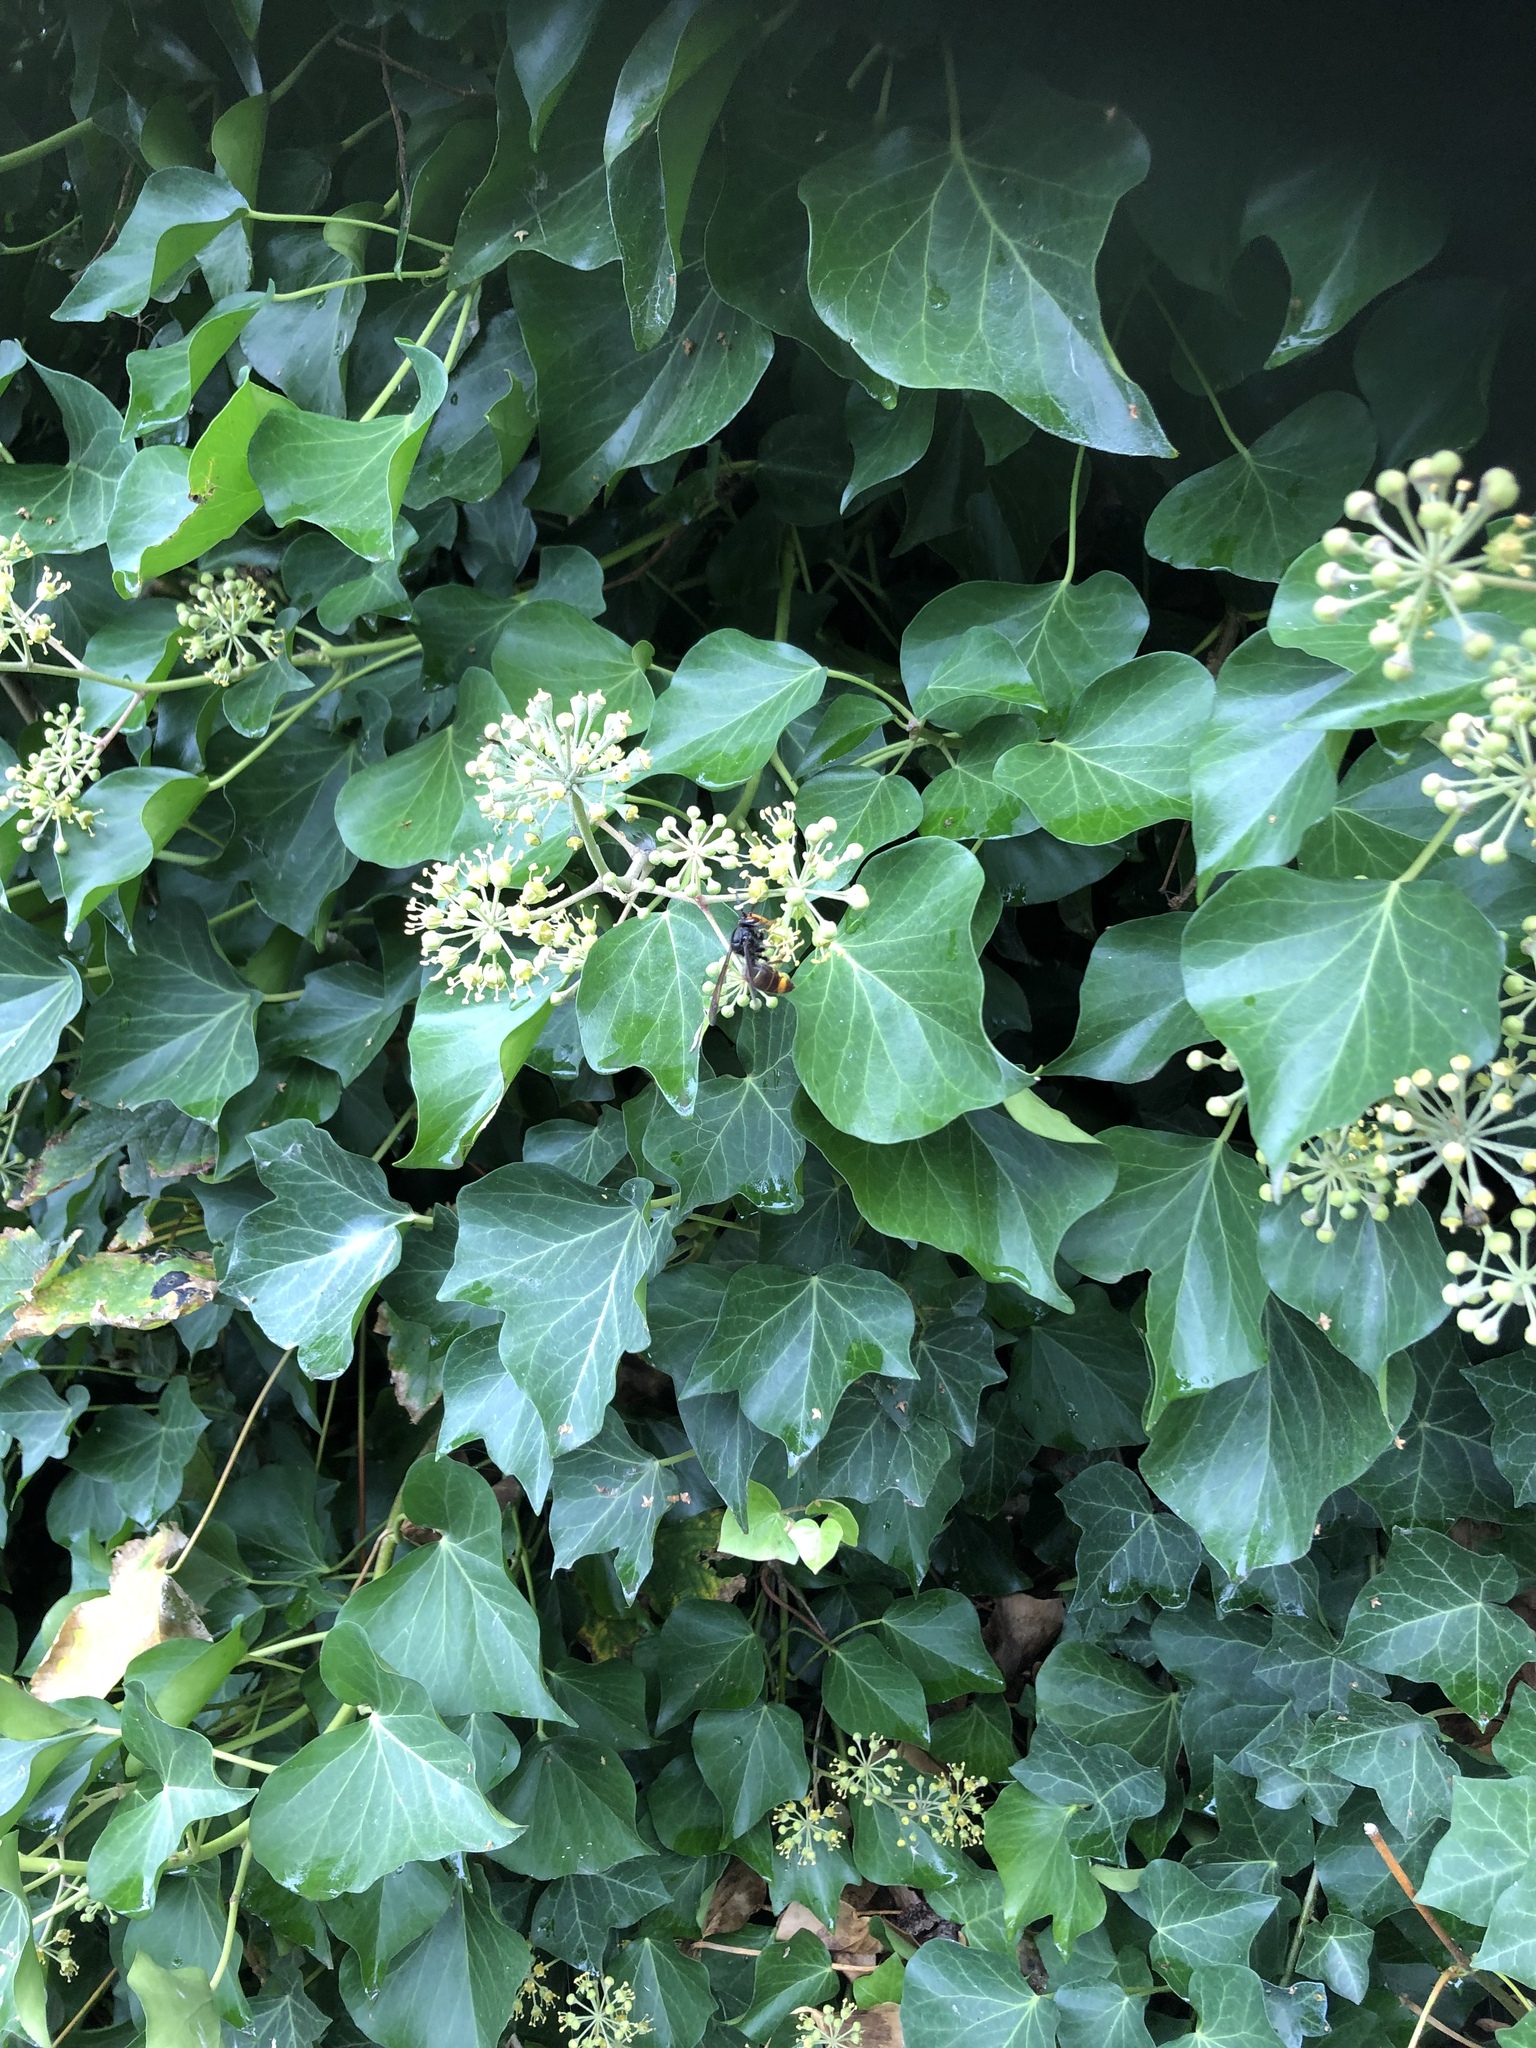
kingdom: Animalia
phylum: Arthropoda
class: Insecta
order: Hymenoptera
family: Vespidae
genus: Vespa
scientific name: Vespa velutina
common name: Asian hornet
